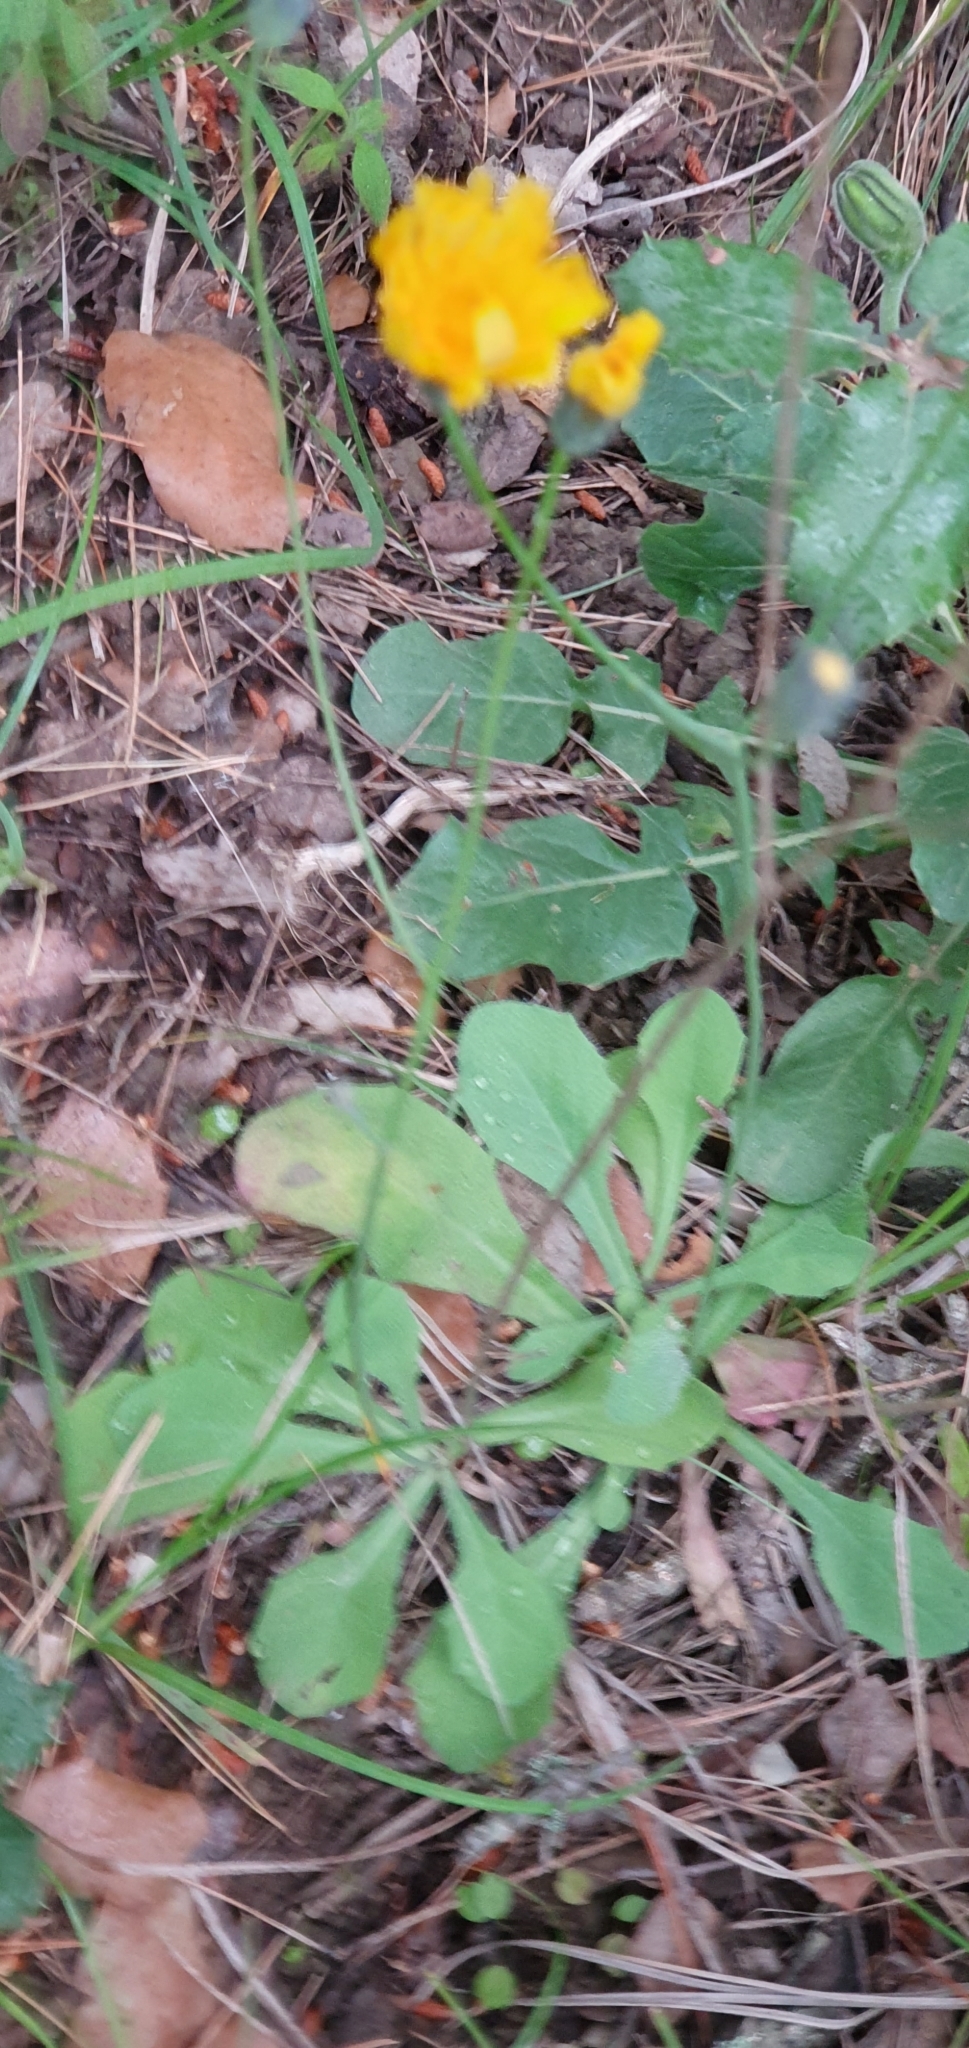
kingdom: Plantae
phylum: Tracheophyta
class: Magnoliopsida
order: Asterales
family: Asteraceae
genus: Achyrophorus
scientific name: Achyrophorus laevigatus
